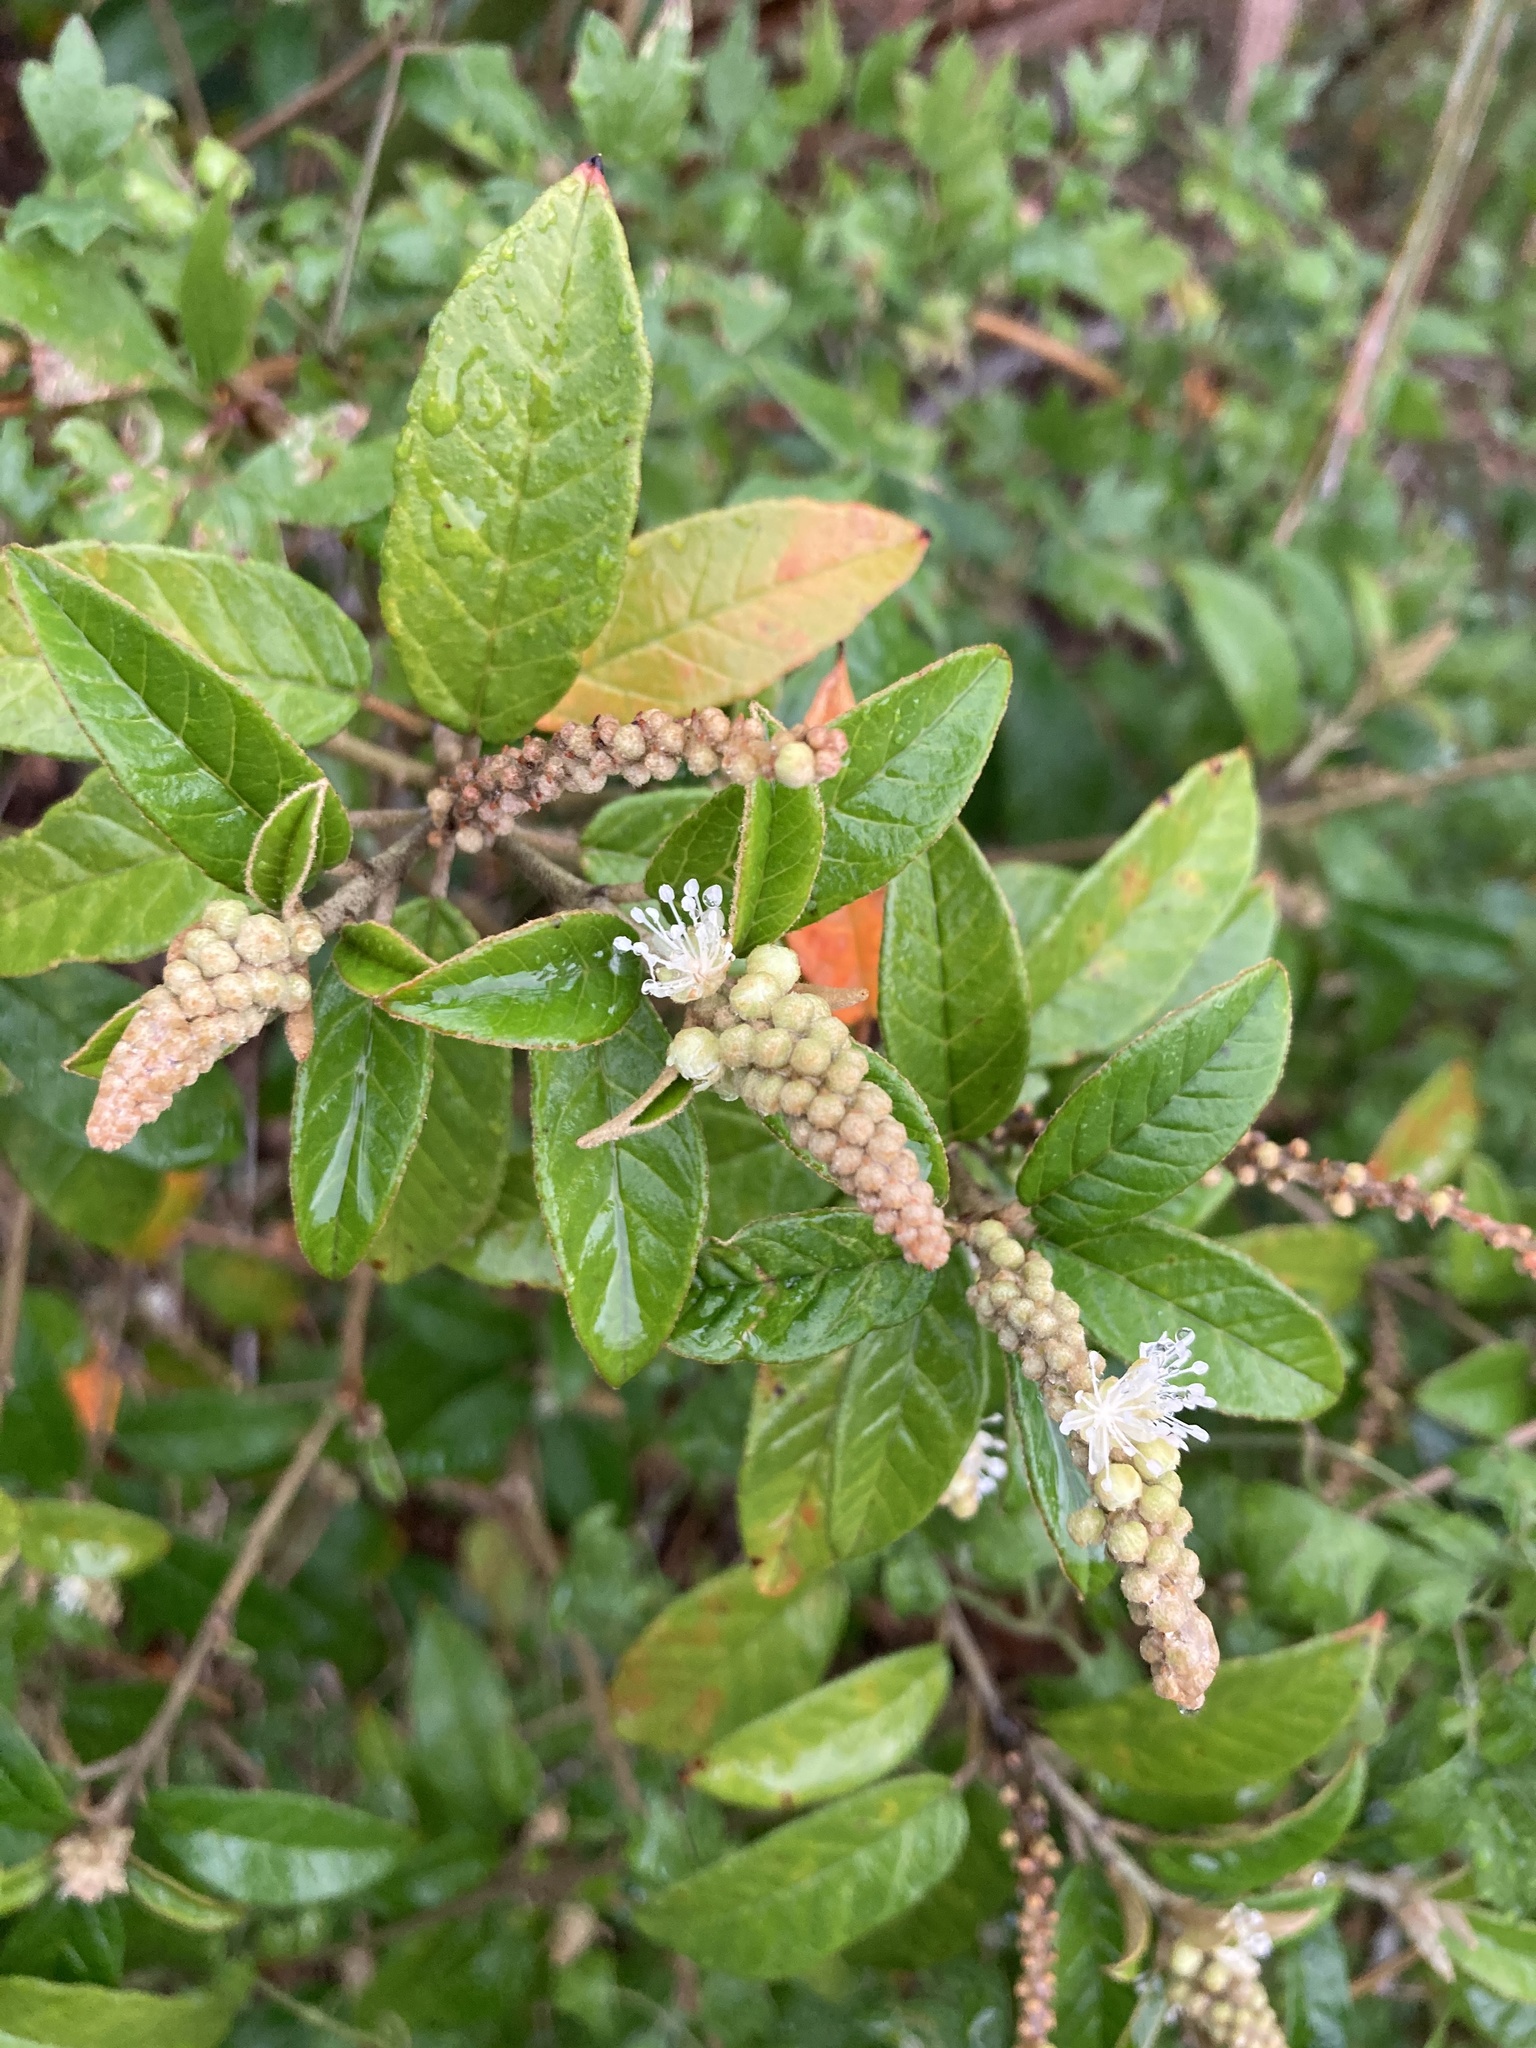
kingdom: Plantae
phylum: Tracheophyta
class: Magnoliopsida
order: Malpighiales
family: Euphorbiaceae
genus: Croton
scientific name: Croton cortesianus
